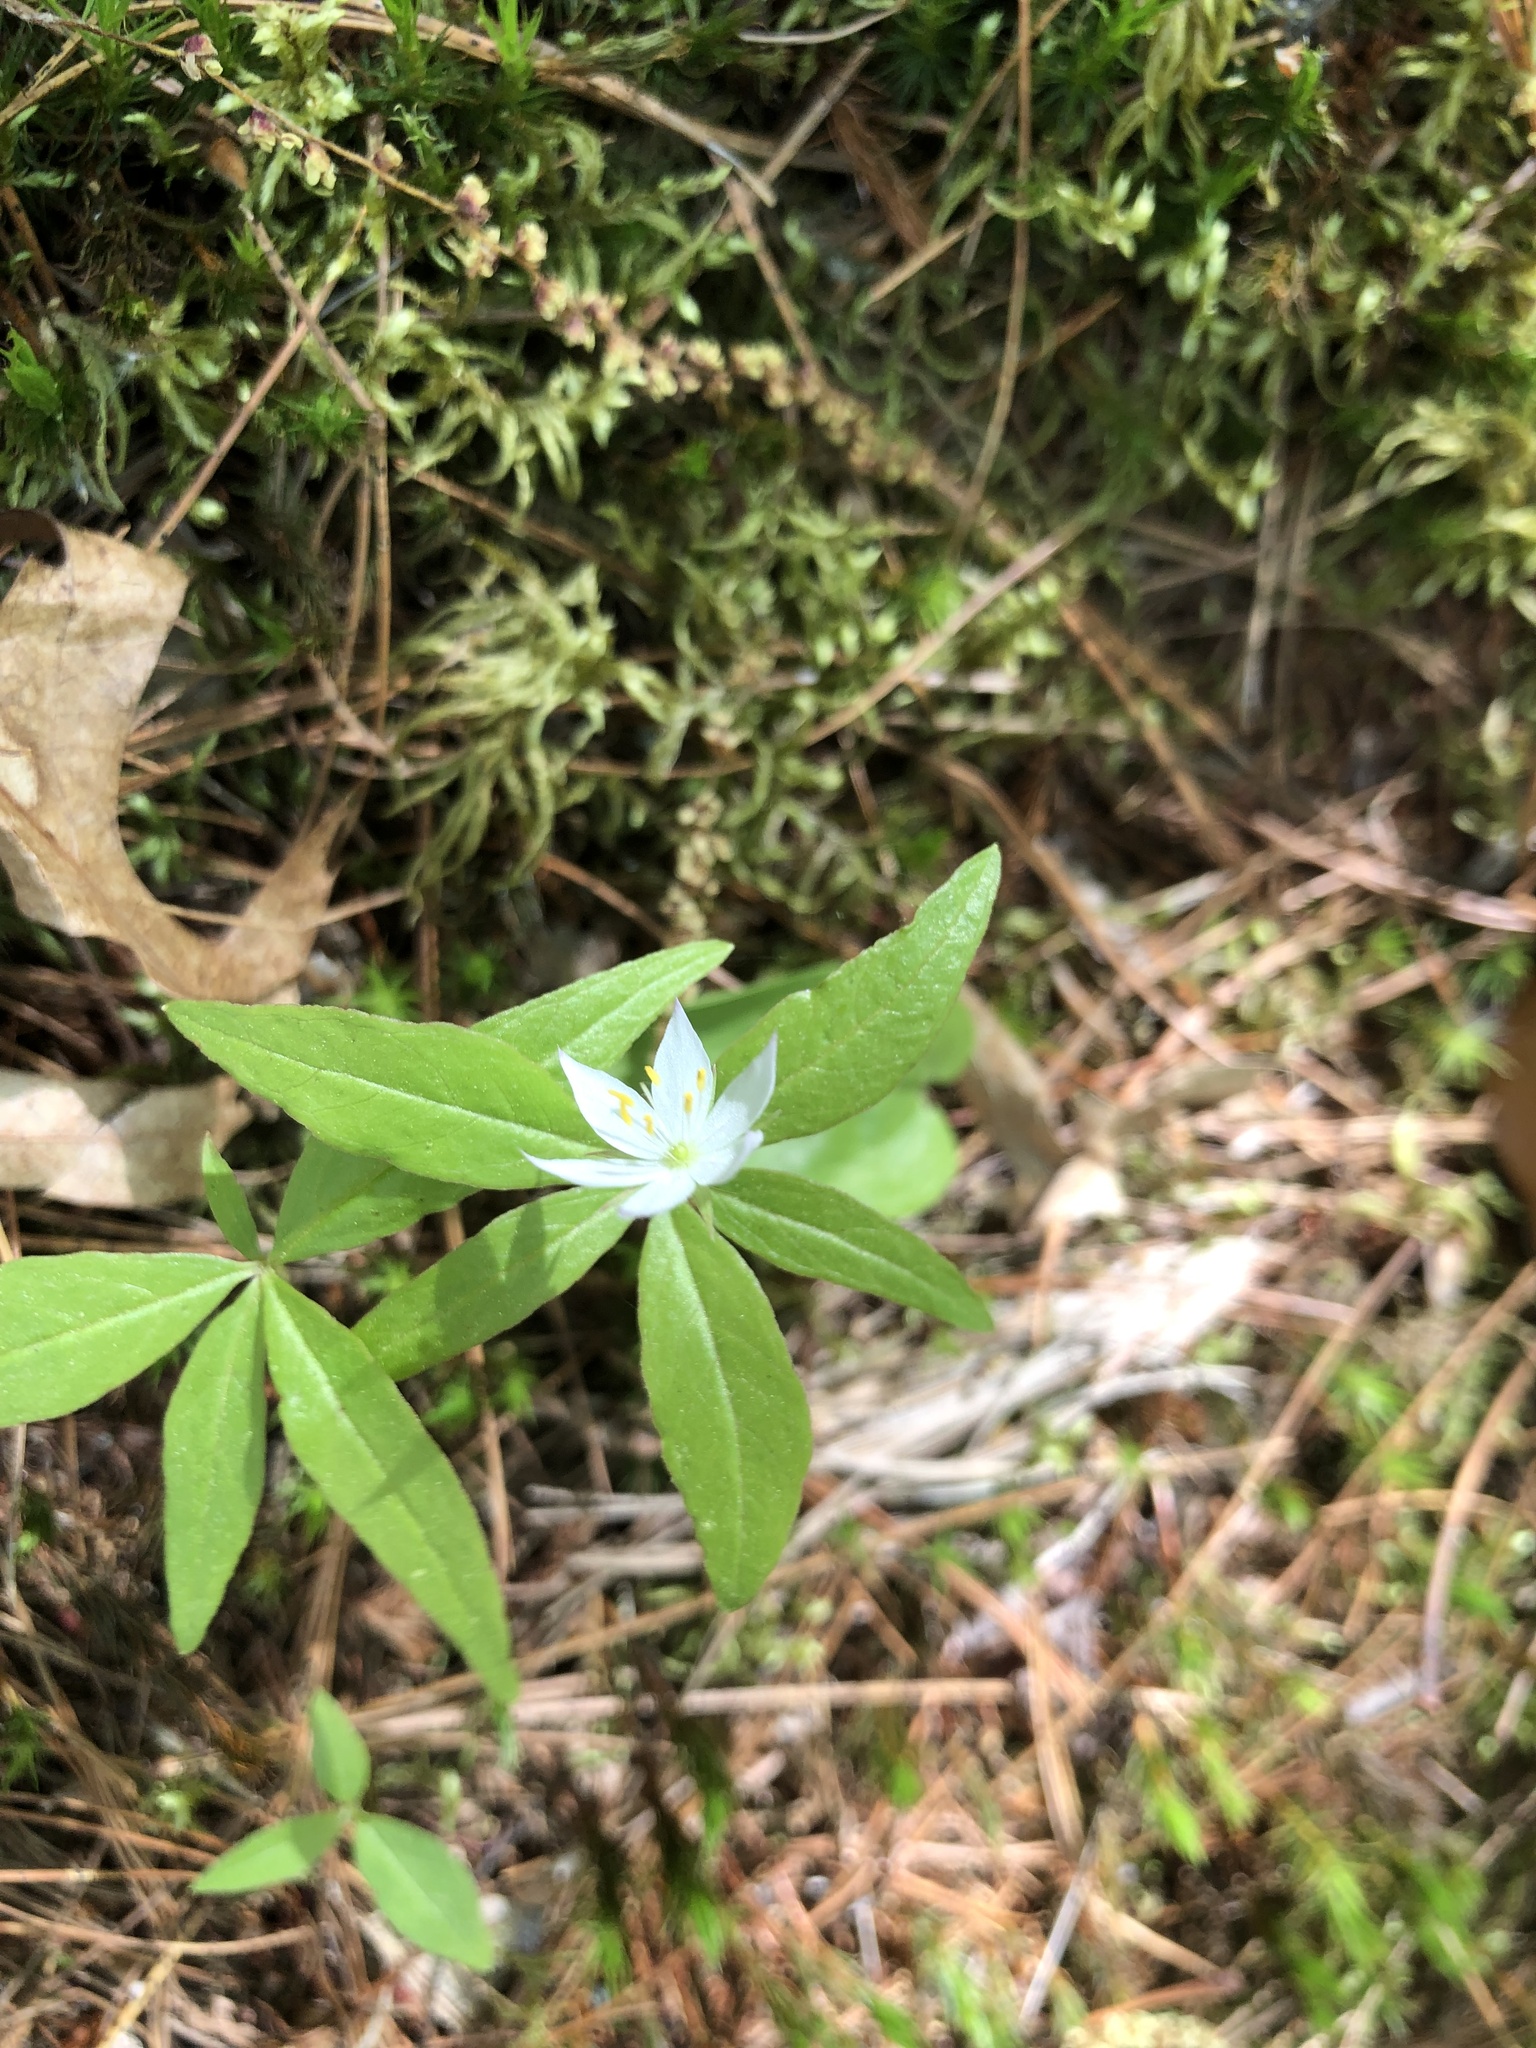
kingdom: Plantae
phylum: Tracheophyta
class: Magnoliopsida
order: Ericales
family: Primulaceae
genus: Lysimachia
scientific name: Lysimachia borealis
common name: American starflower
